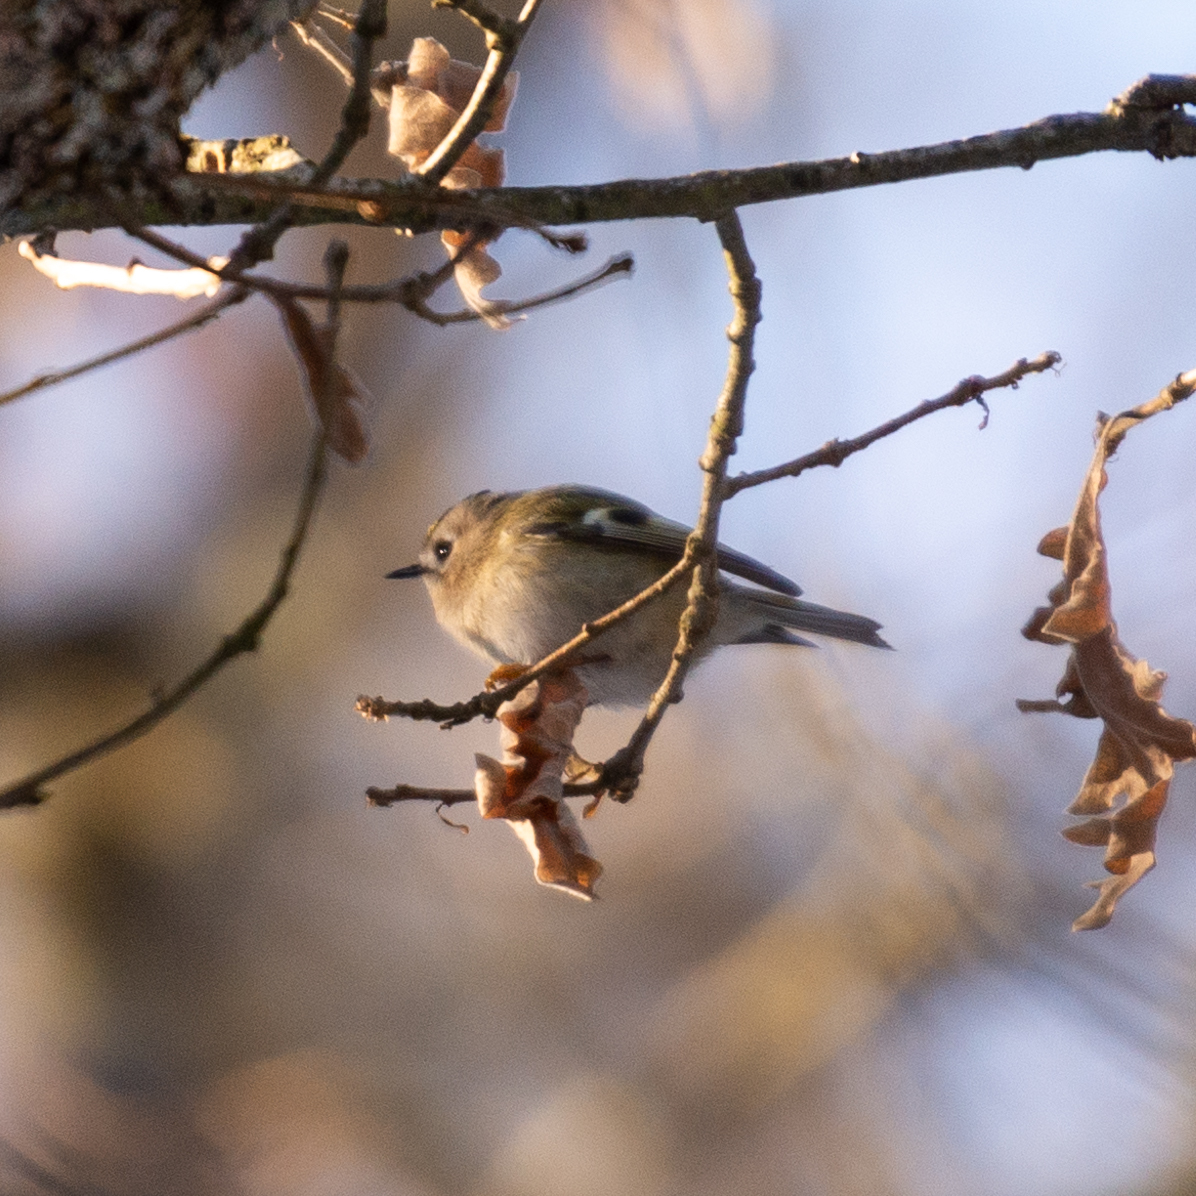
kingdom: Animalia
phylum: Chordata
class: Aves
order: Passeriformes
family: Regulidae
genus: Regulus
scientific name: Regulus regulus
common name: Goldcrest
